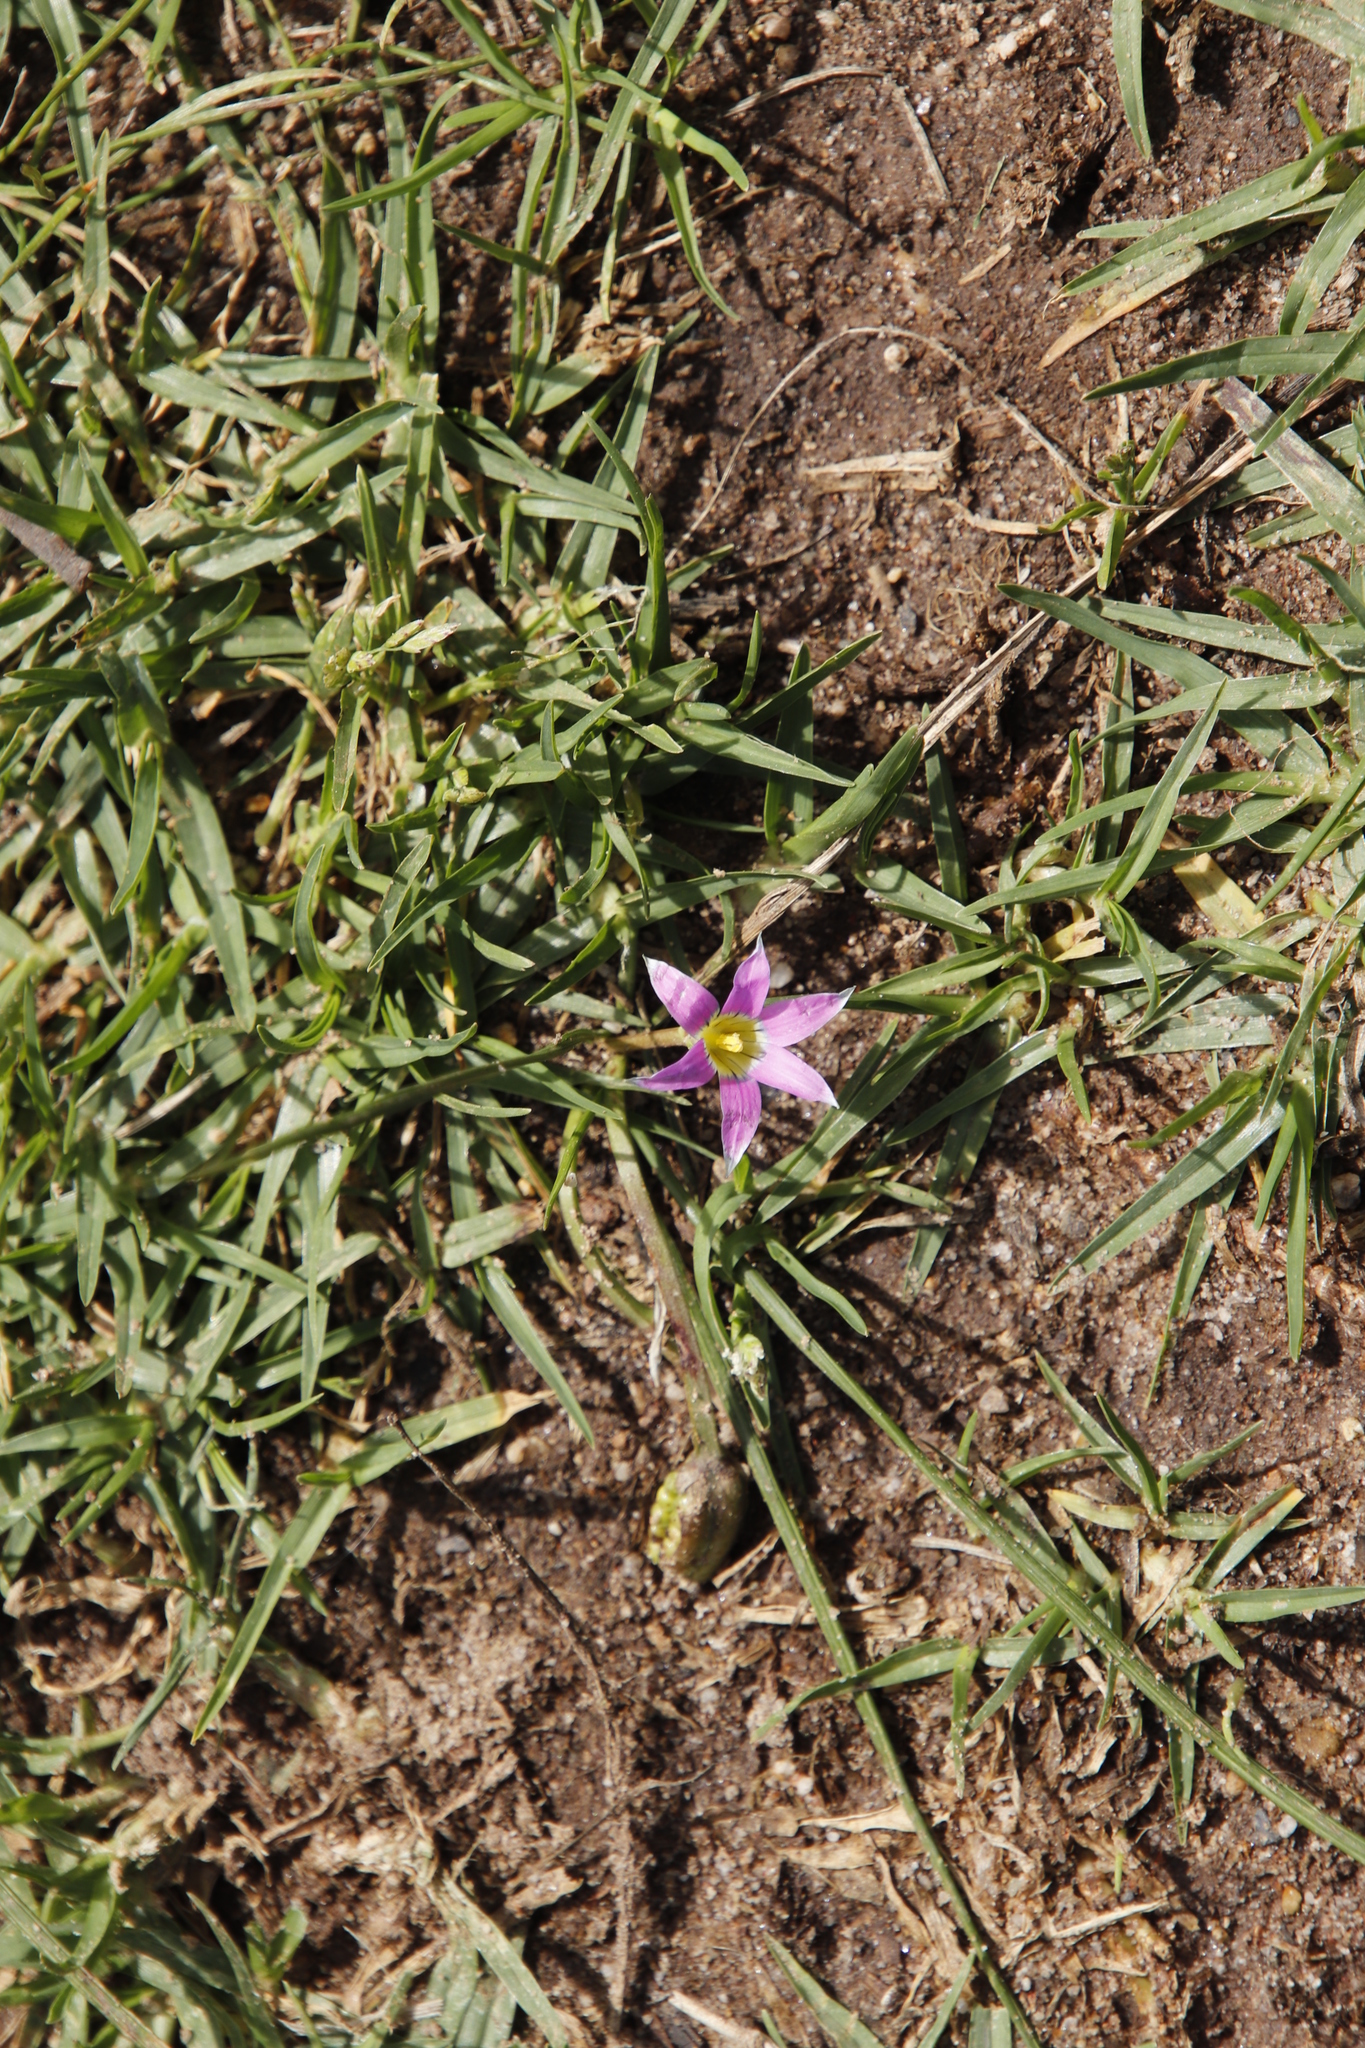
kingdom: Plantae
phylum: Tracheophyta
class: Liliopsida
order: Asparagales
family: Iridaceae
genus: Romulea
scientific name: Romulea rosea
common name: Oniongrass
